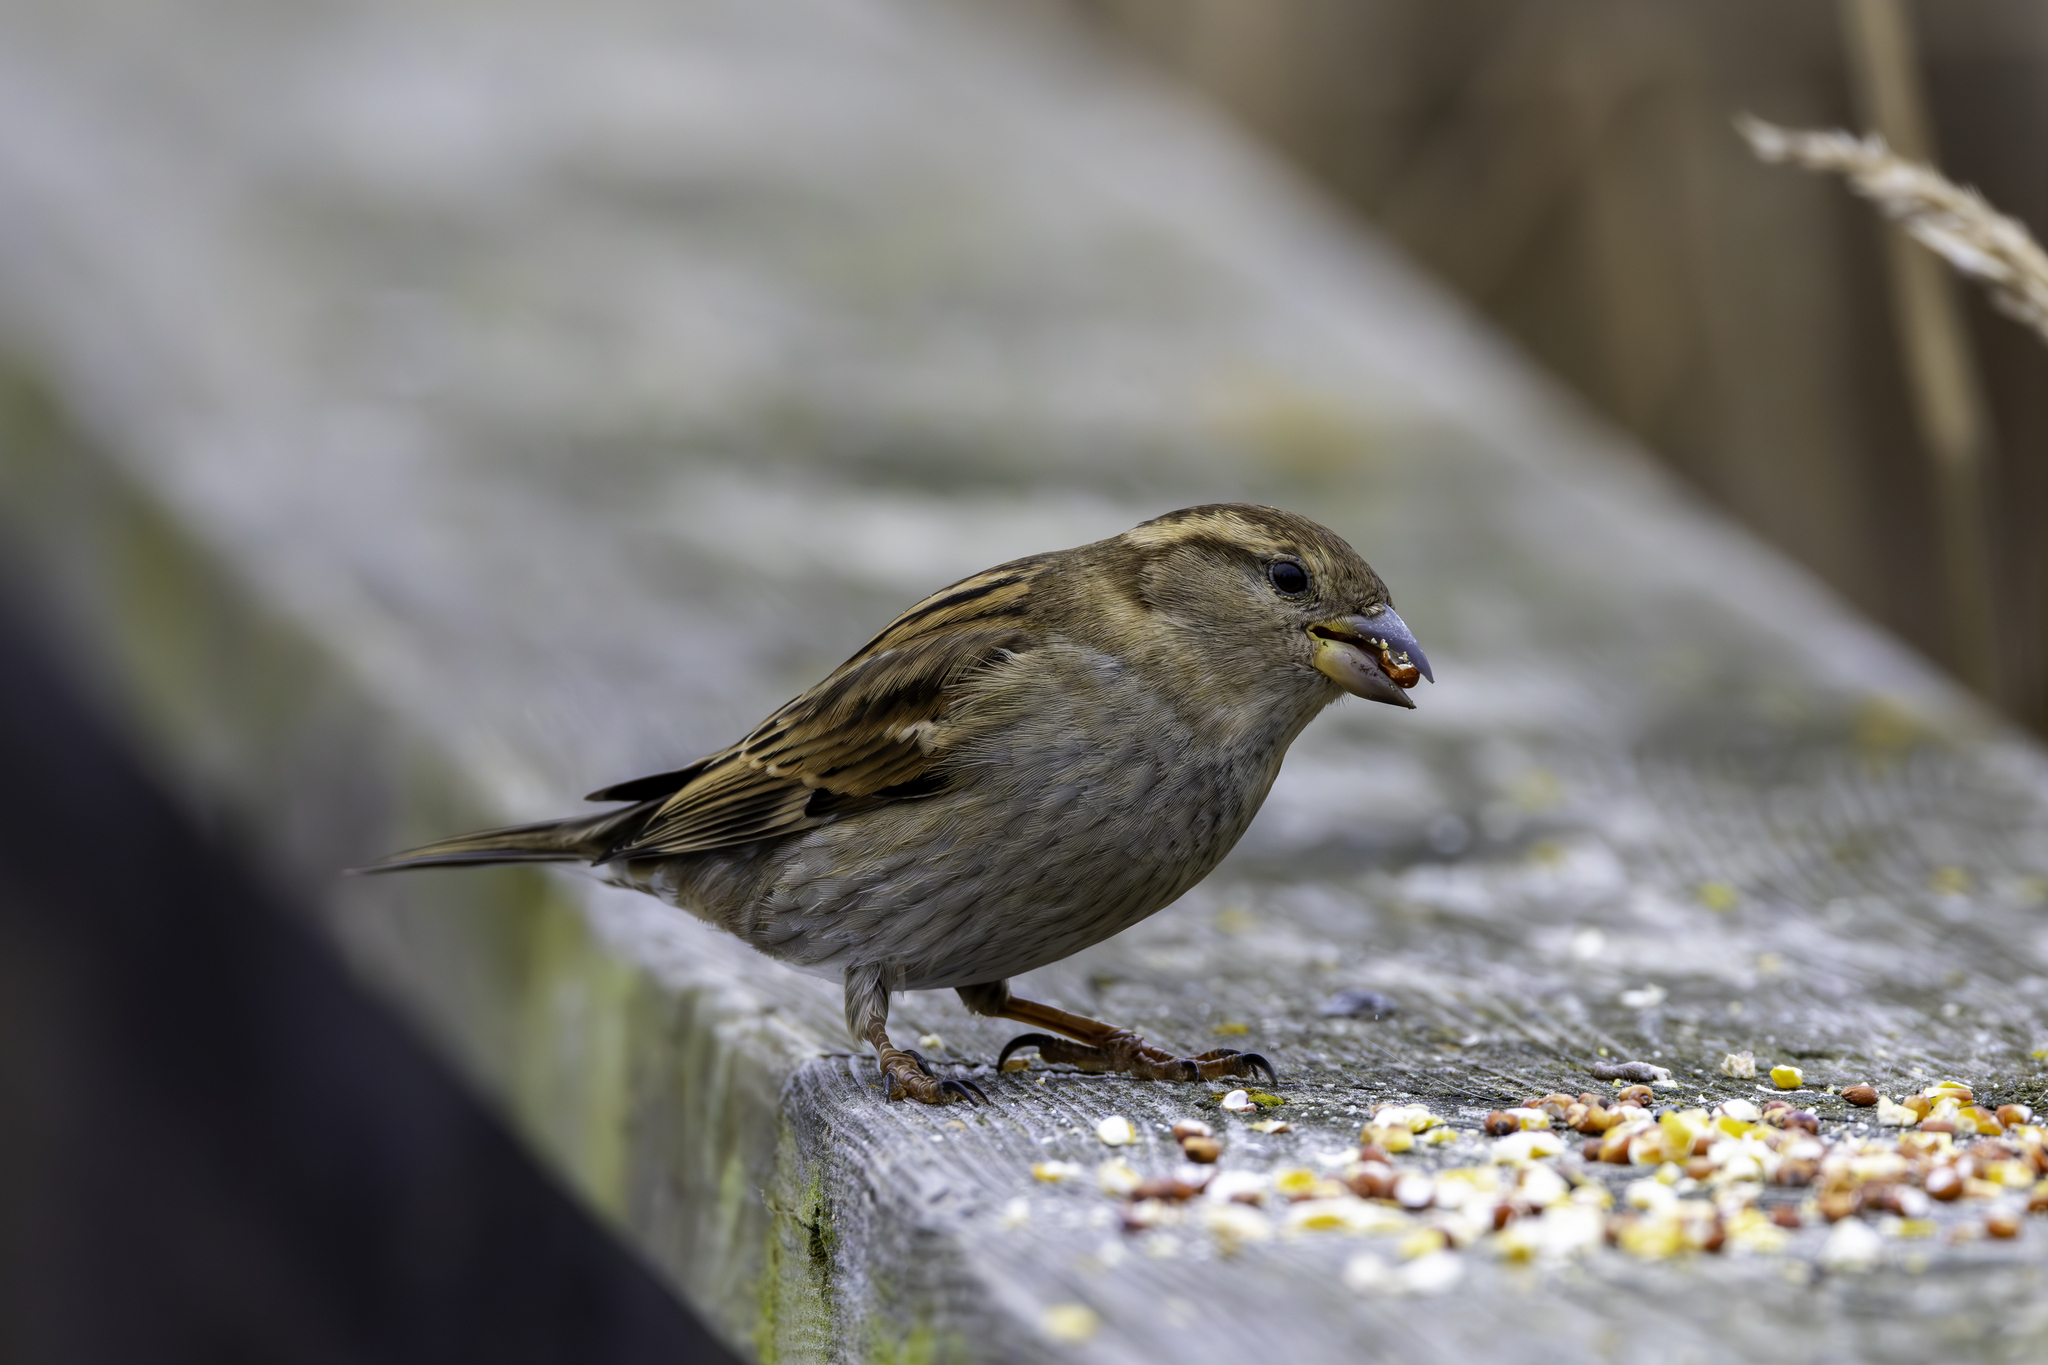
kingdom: Animalia
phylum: Chordata
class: Aves
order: Passeriformes
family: Passeridae
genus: Passer
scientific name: Passer domesticus
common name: House sparrow
